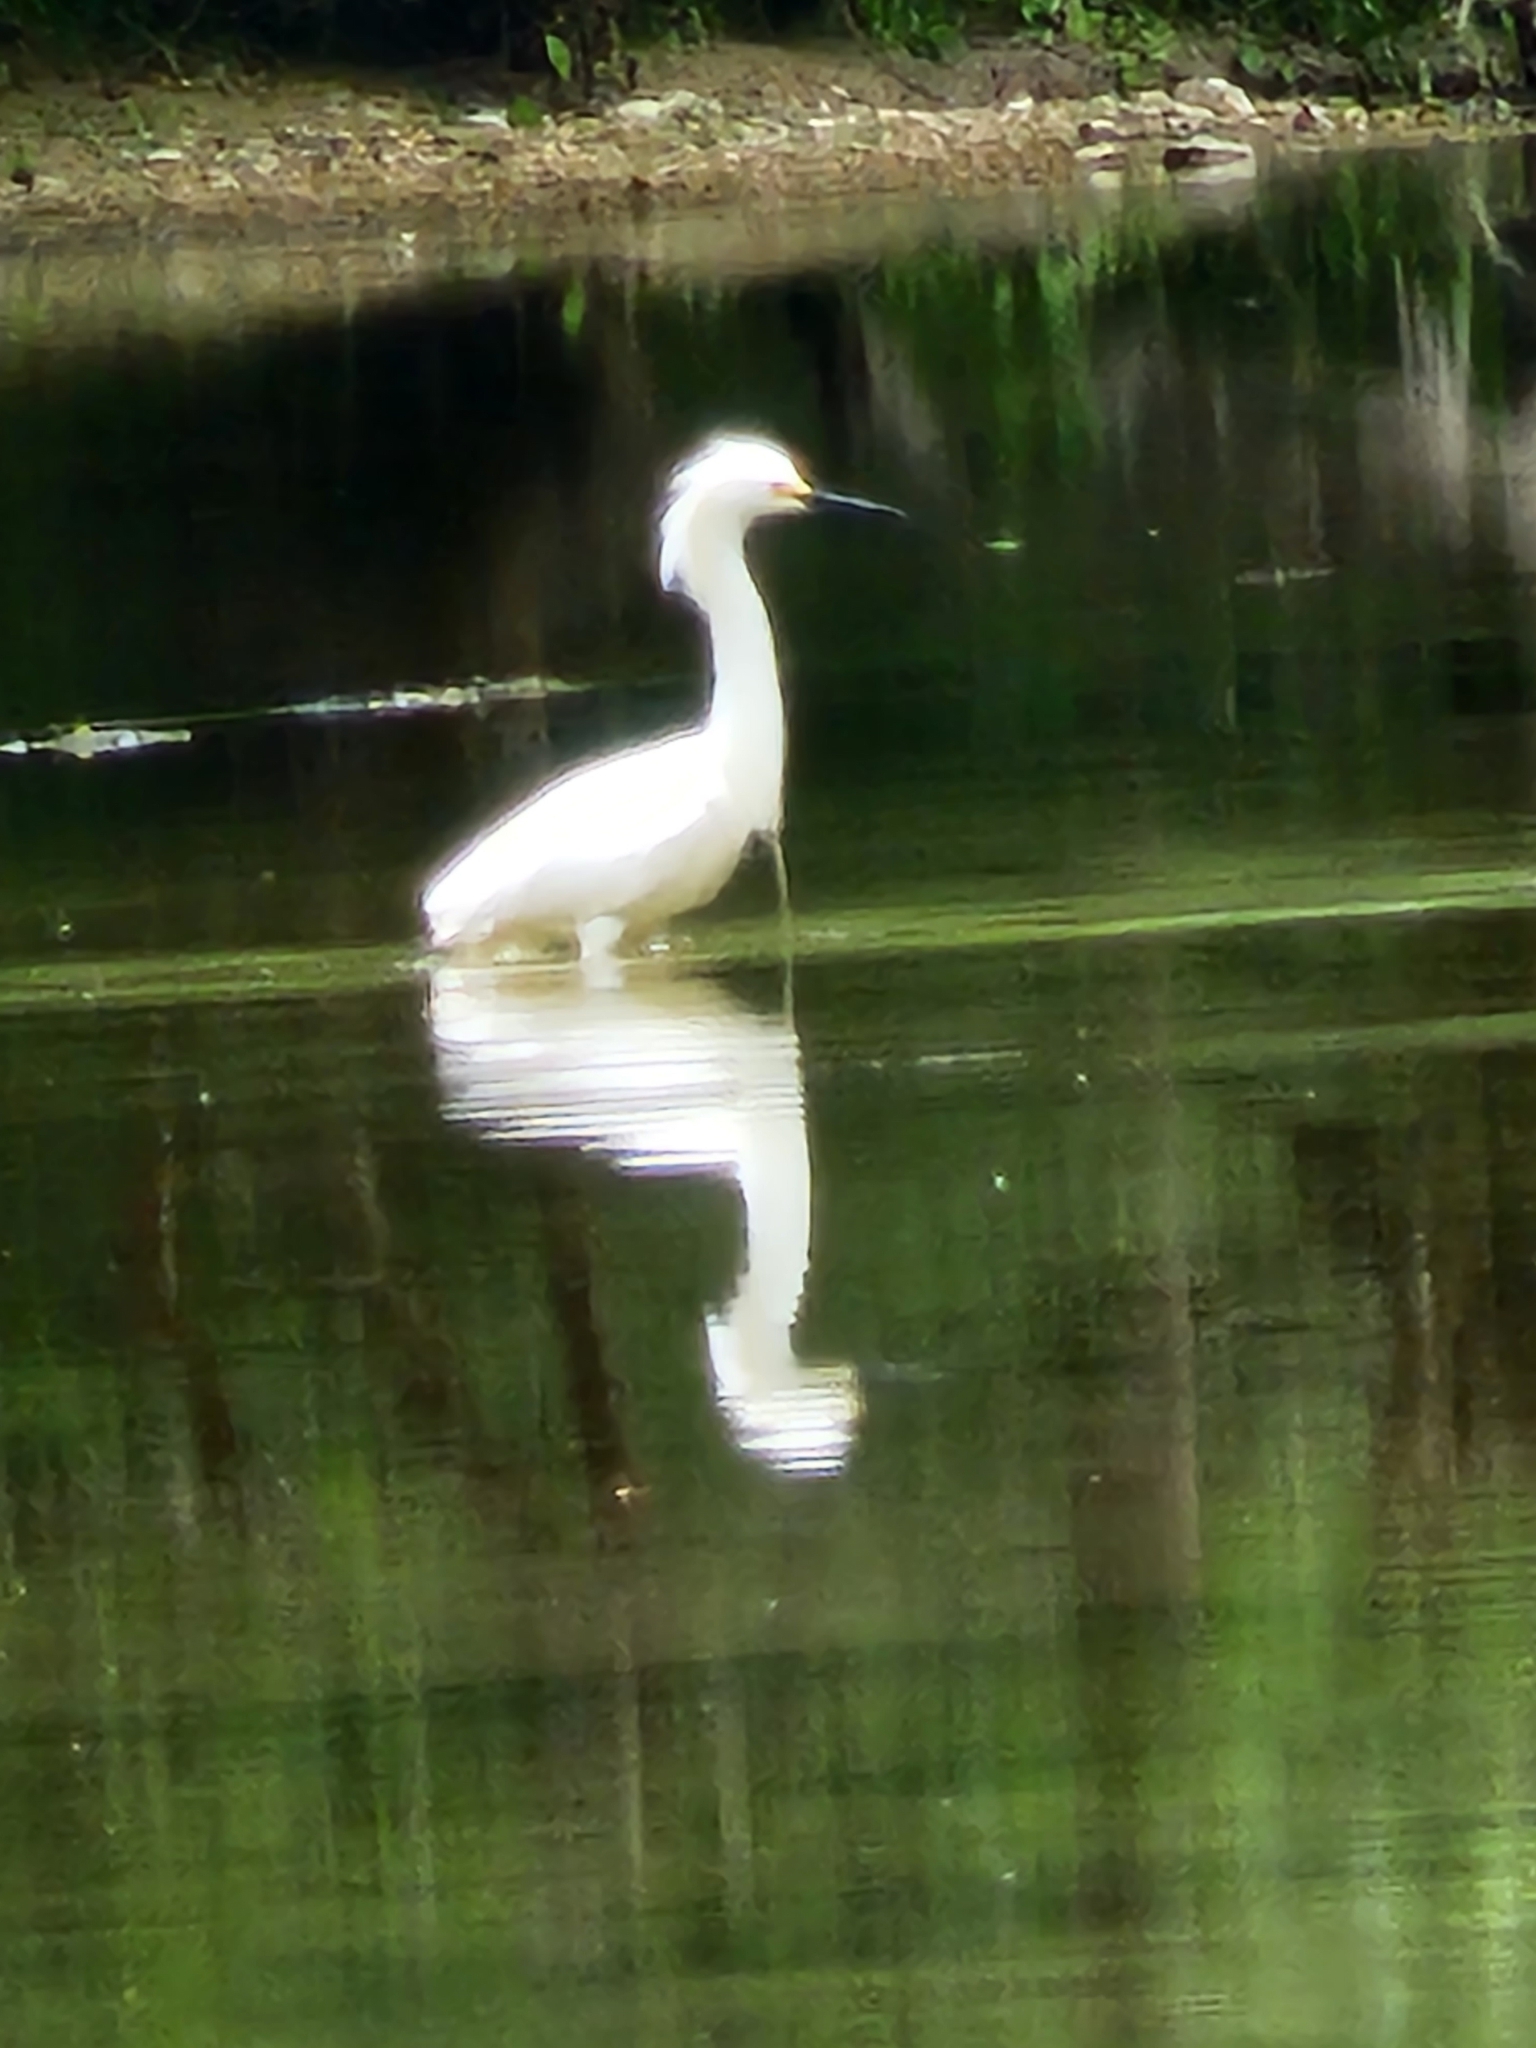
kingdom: Animalia
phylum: Chordata
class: Aves
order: Pelecaniformes
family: Ardeidae
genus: Egretta
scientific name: Egretta thula
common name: Snowy egret
